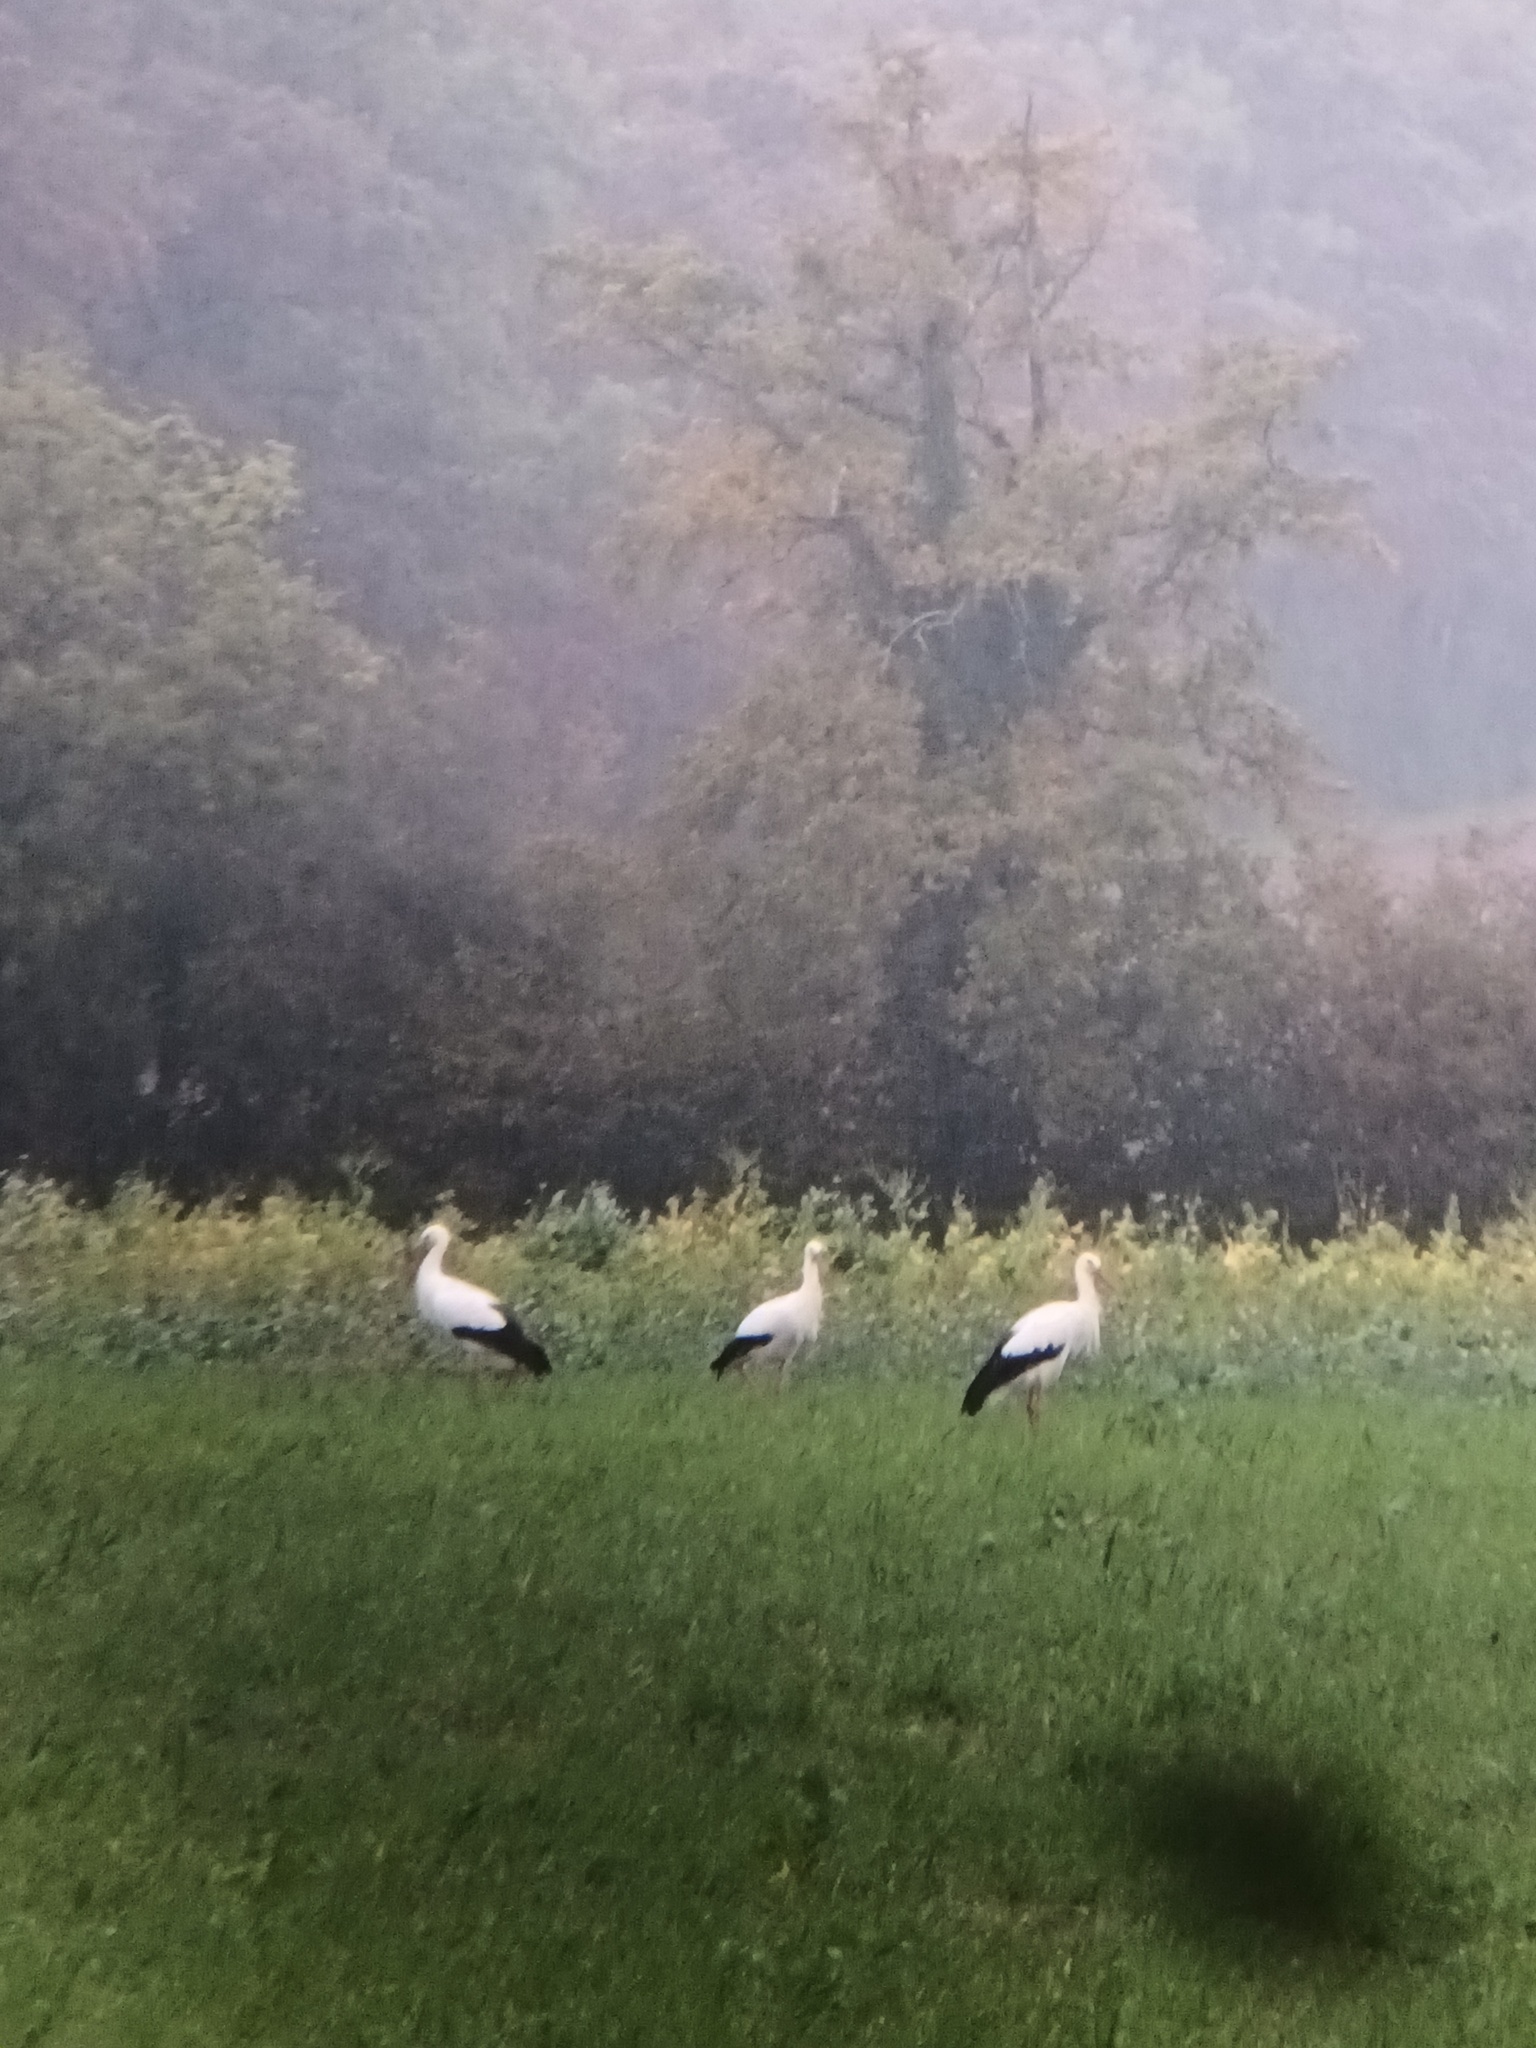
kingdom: Animalia
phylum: Chordata
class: Aves
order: Ciconiiformes
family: Ciconiidae
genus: Ciconia
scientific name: Ciconia ciconia
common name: White stork
